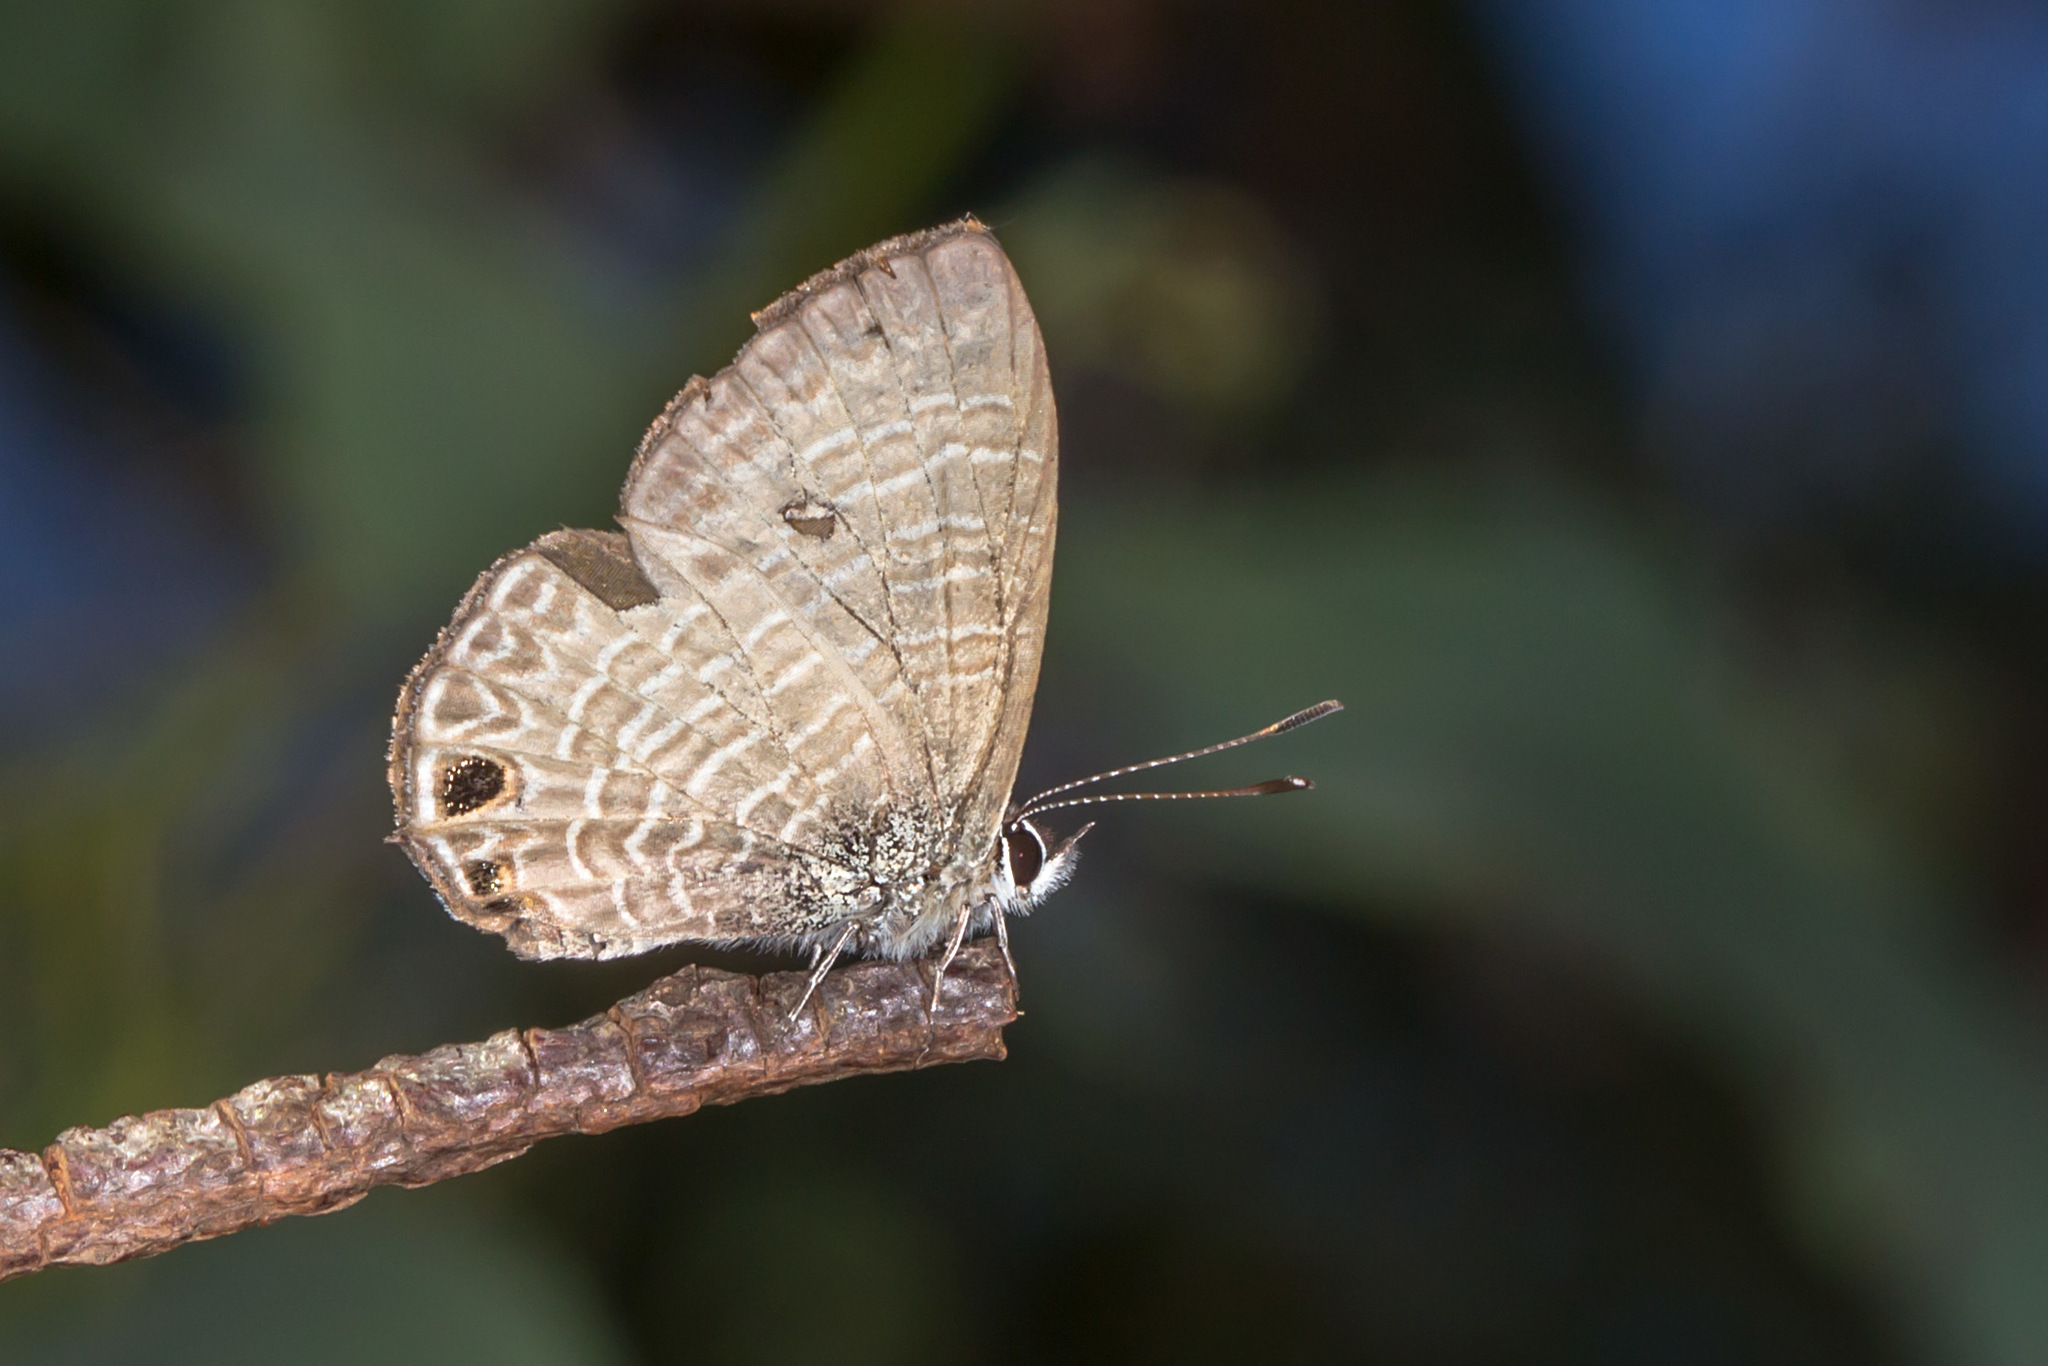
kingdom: Animalia
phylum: Arthropoda
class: Insecta
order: Lepidoptera
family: Lycaenidae
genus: Nacaduba
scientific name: Nacaduba berenice
